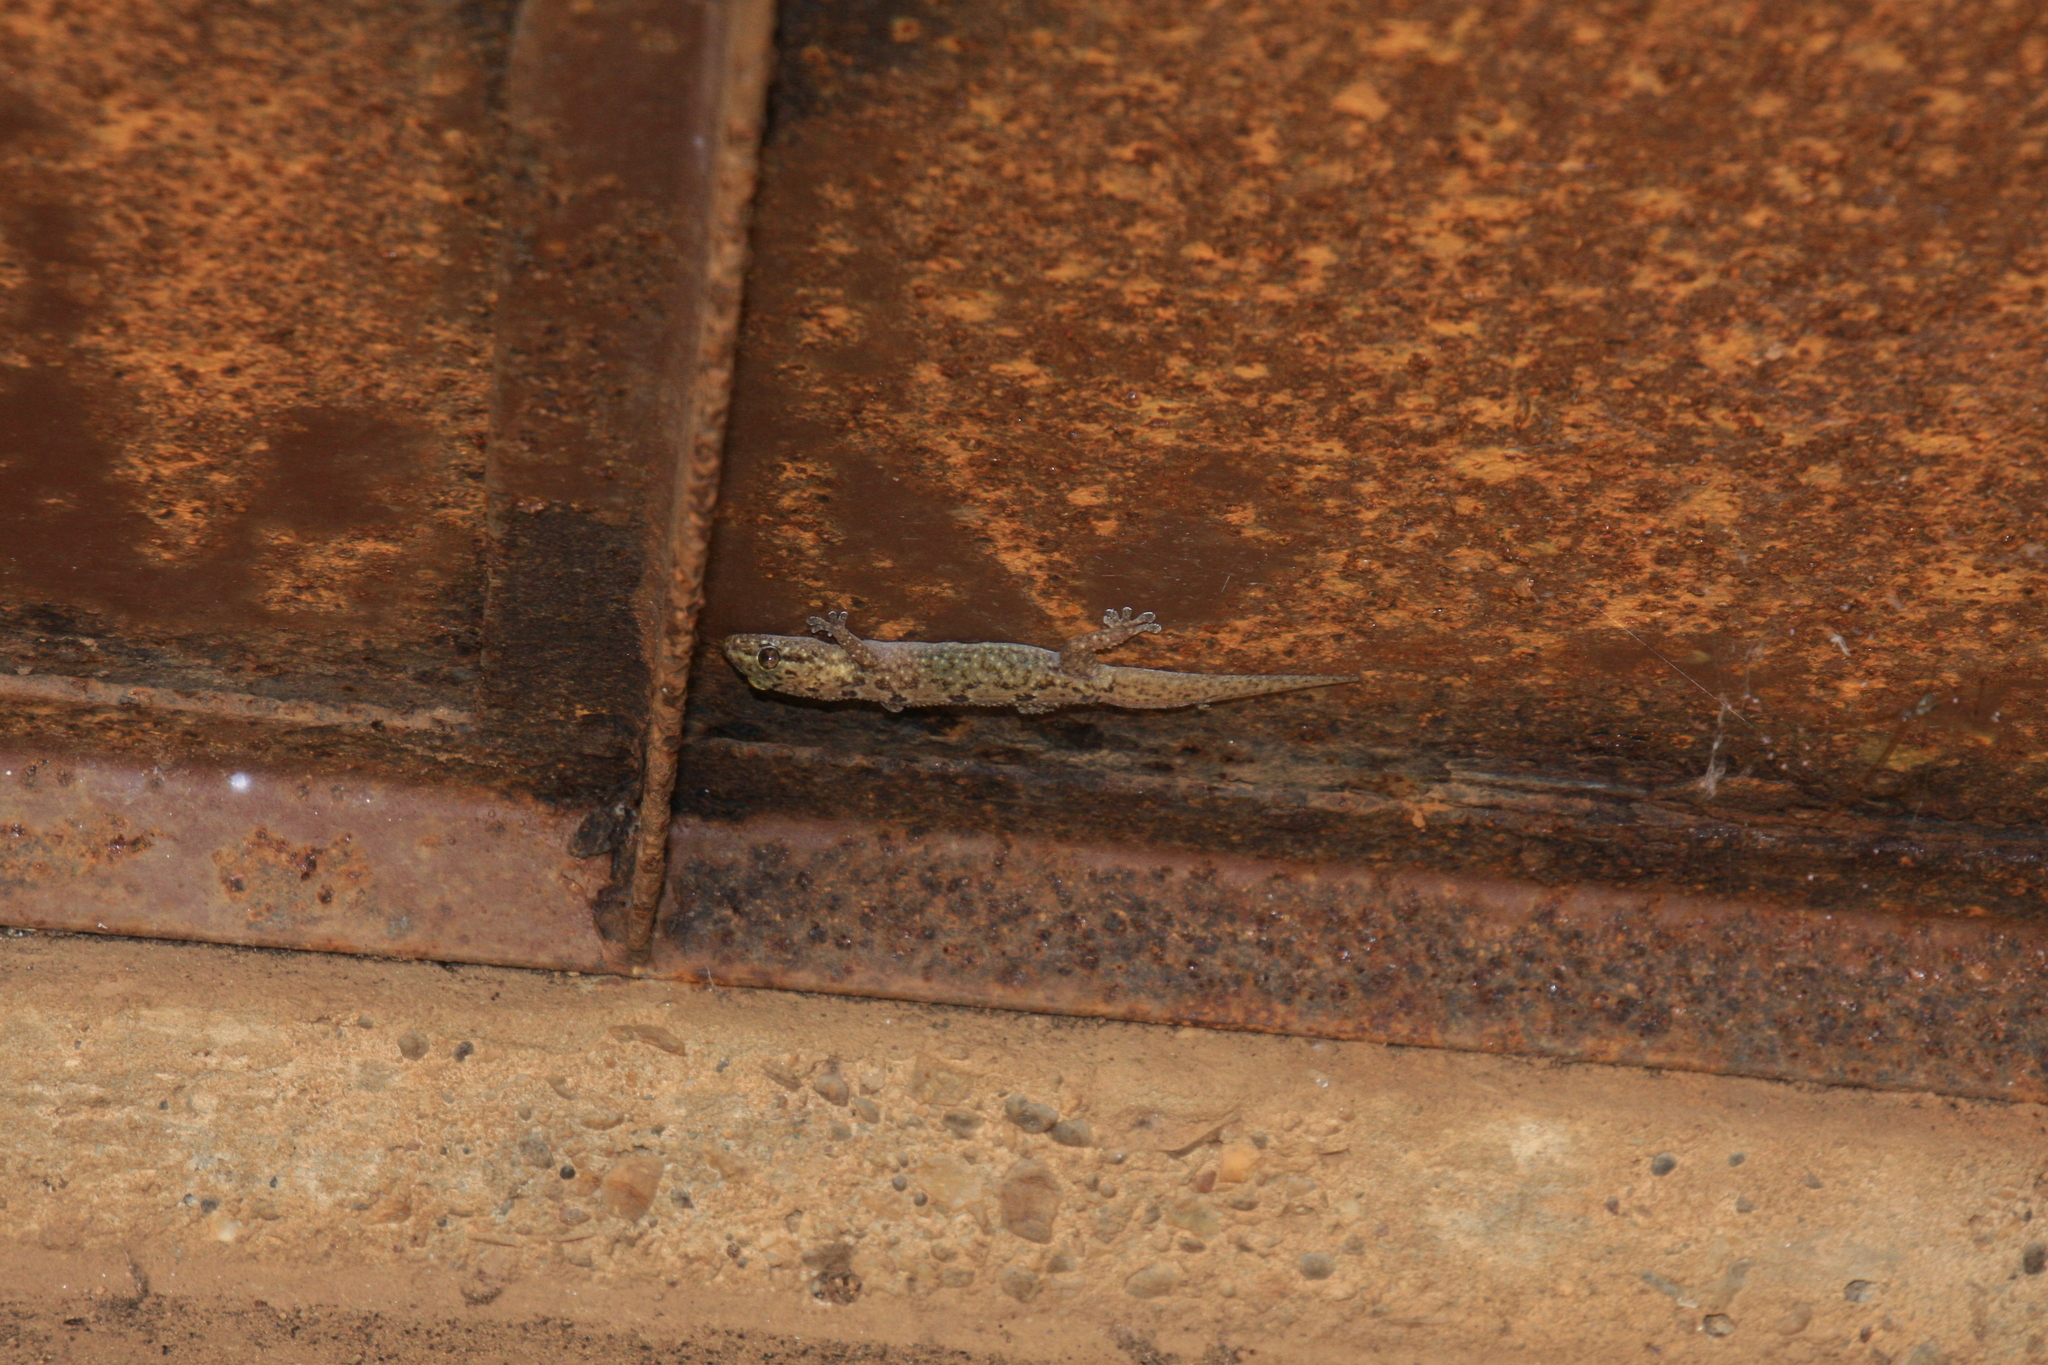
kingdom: Animalia
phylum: Chordata
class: Squamata
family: Gekkonidae
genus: Hemidactylus
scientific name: Hemidactylus angulatus
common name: Brook's house gecko
